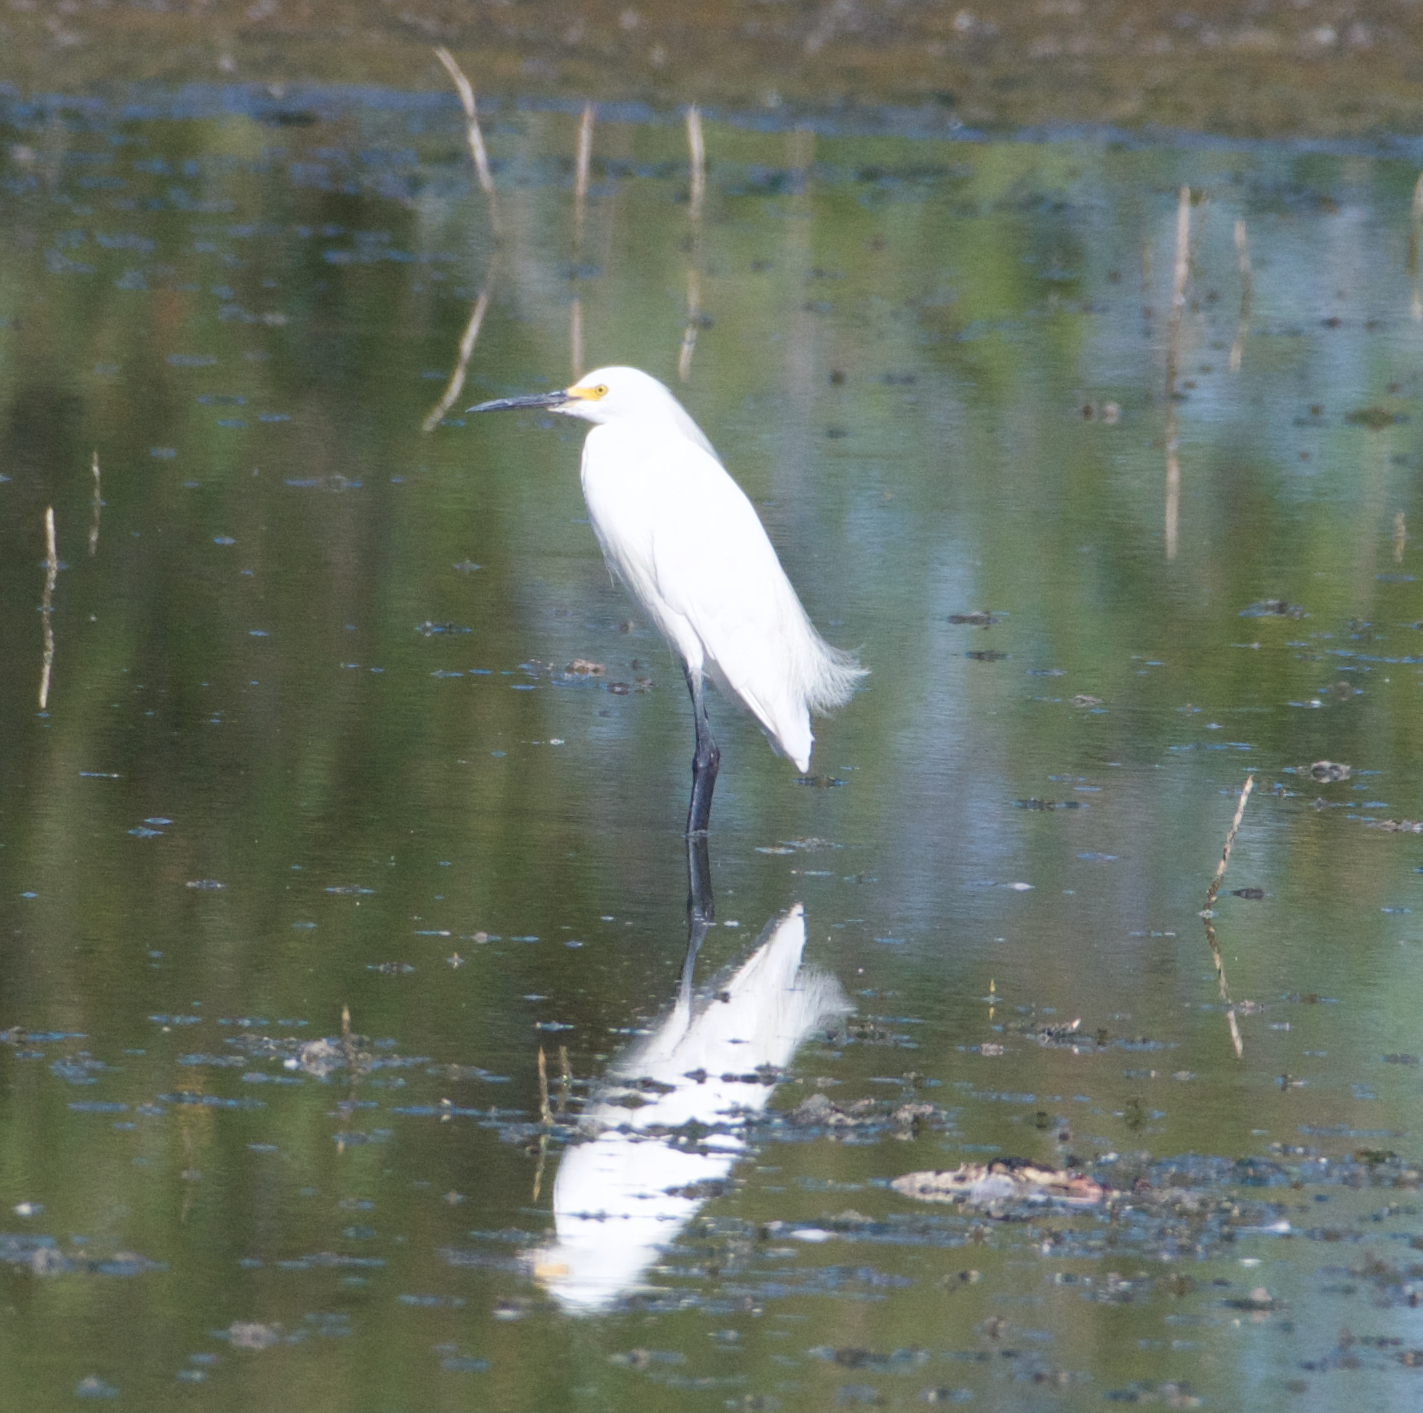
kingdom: Animalia
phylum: Chordata
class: Aves
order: Pelecaniformes
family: Ardeidae
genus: Egretta
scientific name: Egretta thula
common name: Snowy egret
